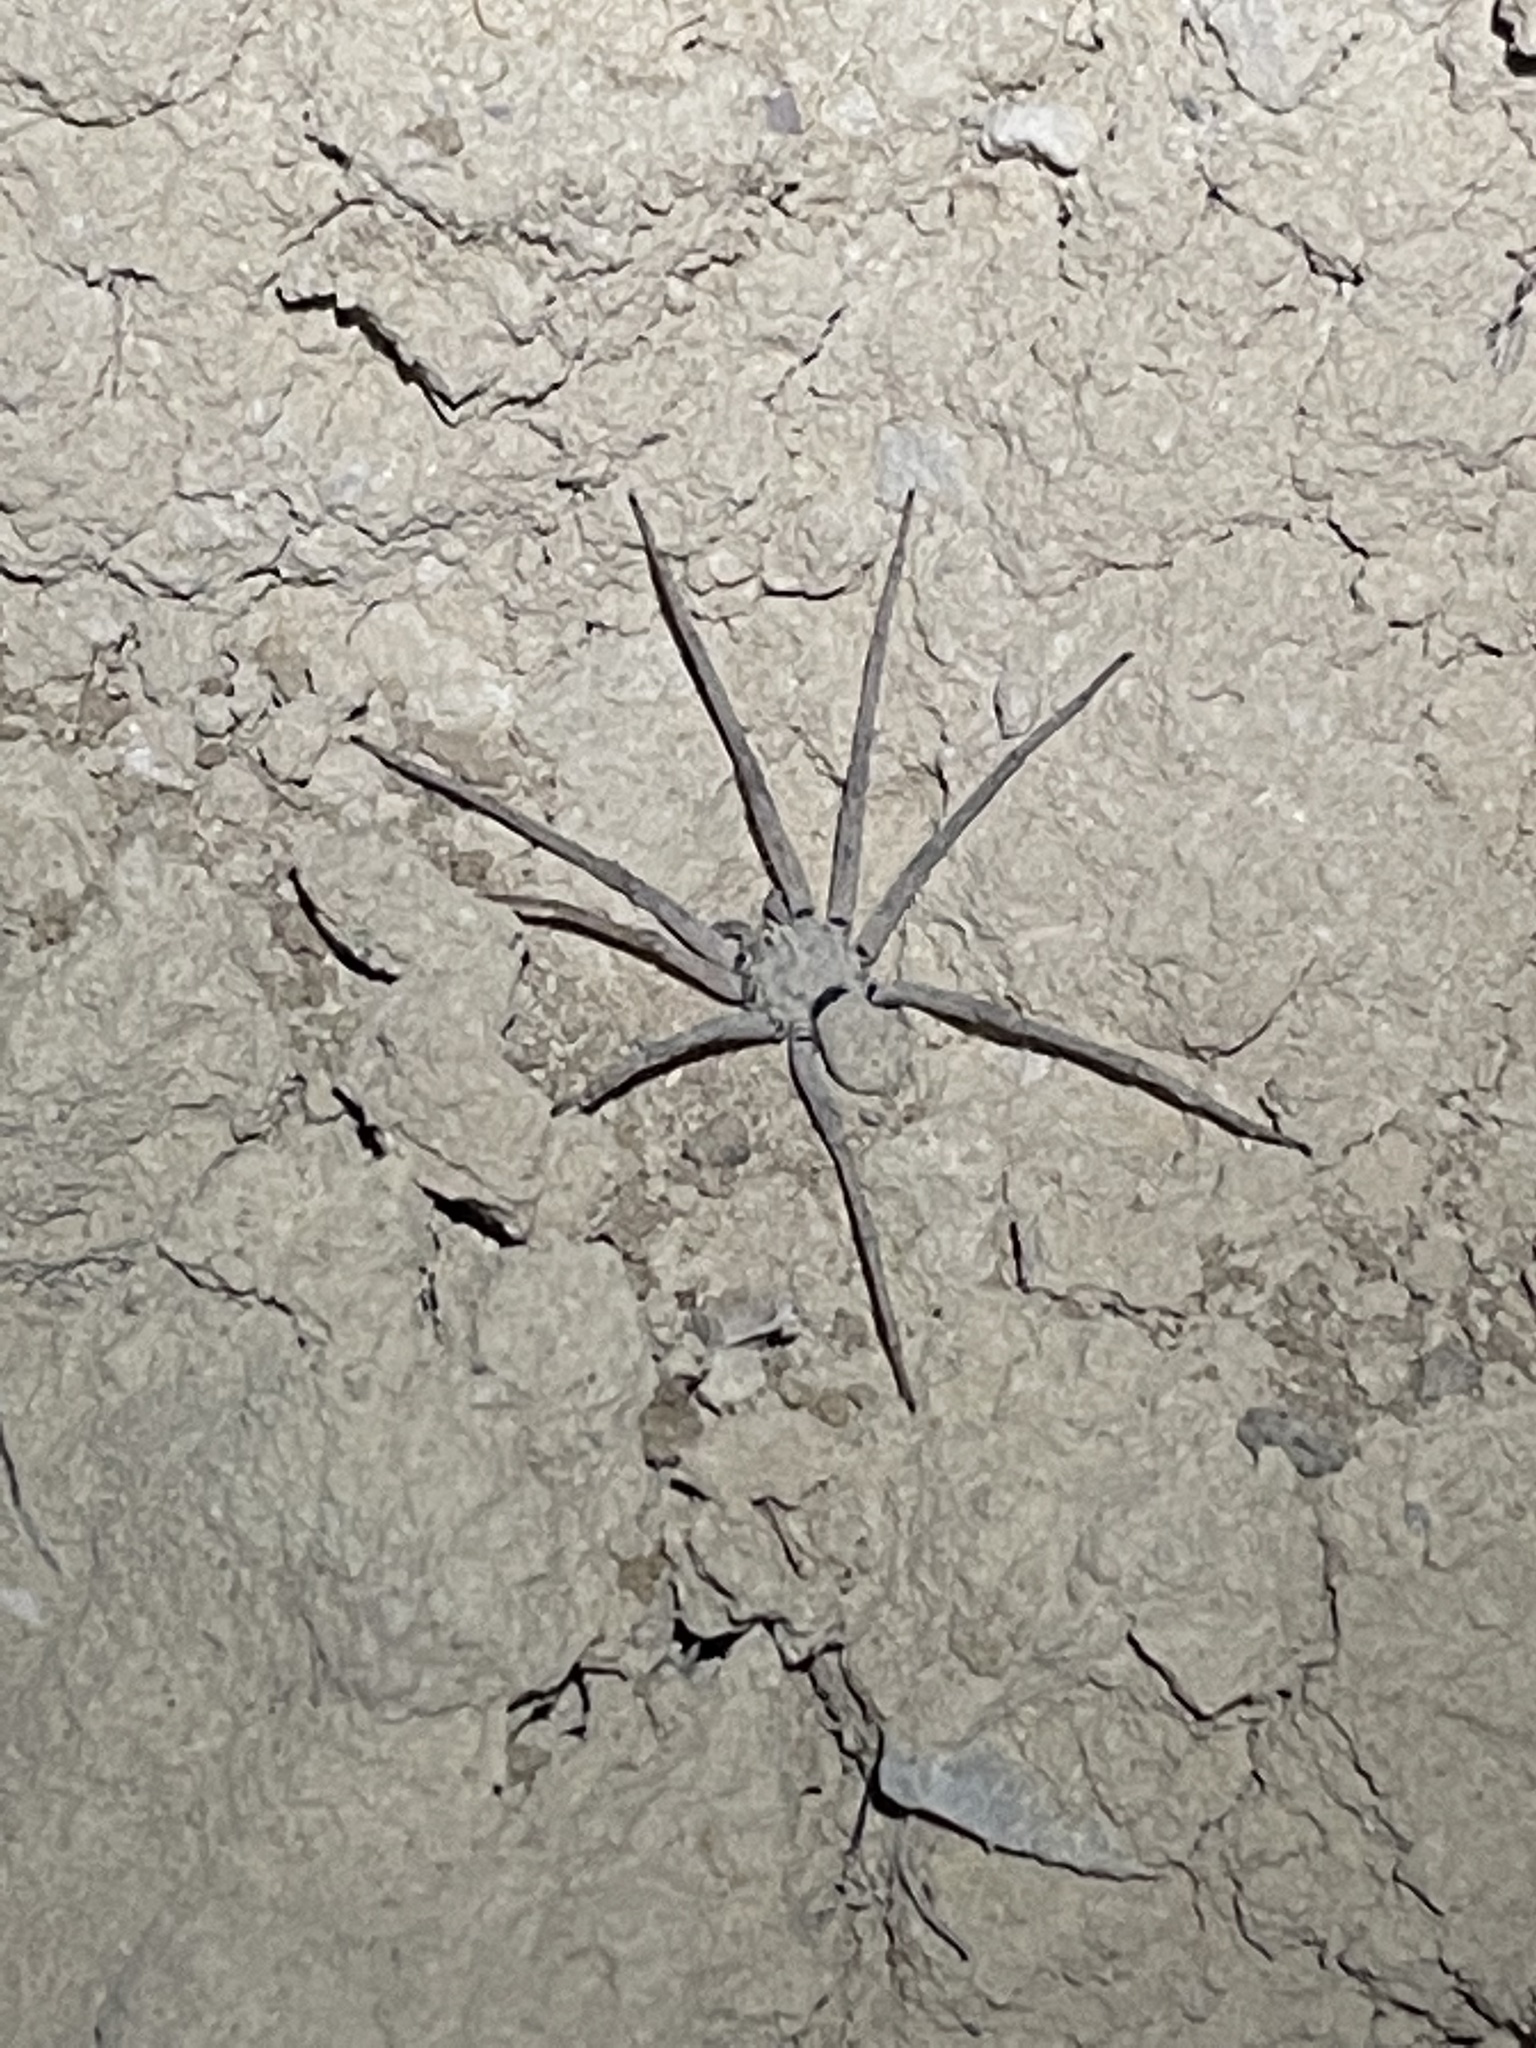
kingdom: Animalia
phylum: Arthropoda
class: Arachnida
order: Araneae
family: Homalonychidae
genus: Homalonychus
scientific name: Homalonychus theologus
